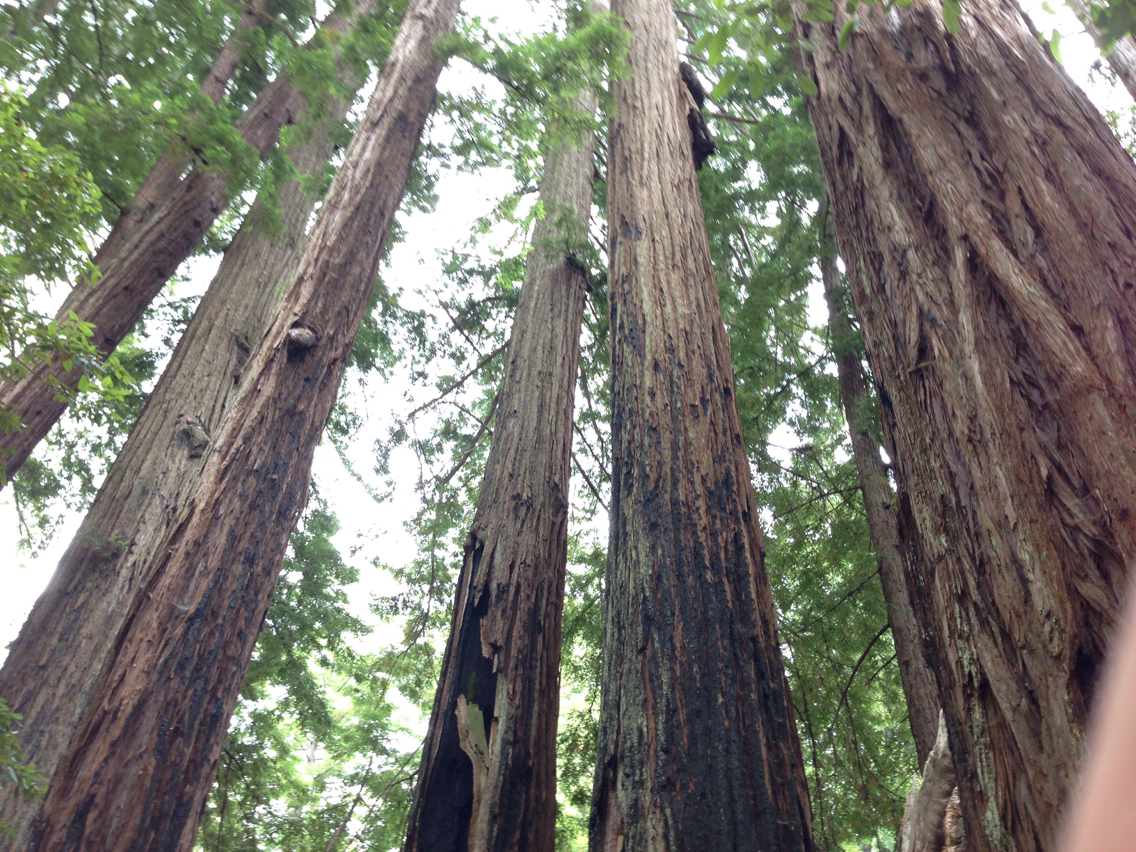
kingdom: Plantae
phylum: Tracheophyta
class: Pinopsida
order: Pinales
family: Cupressaceae
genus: Sequoia
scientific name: Sequoia sempervirens
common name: Coast redwood
